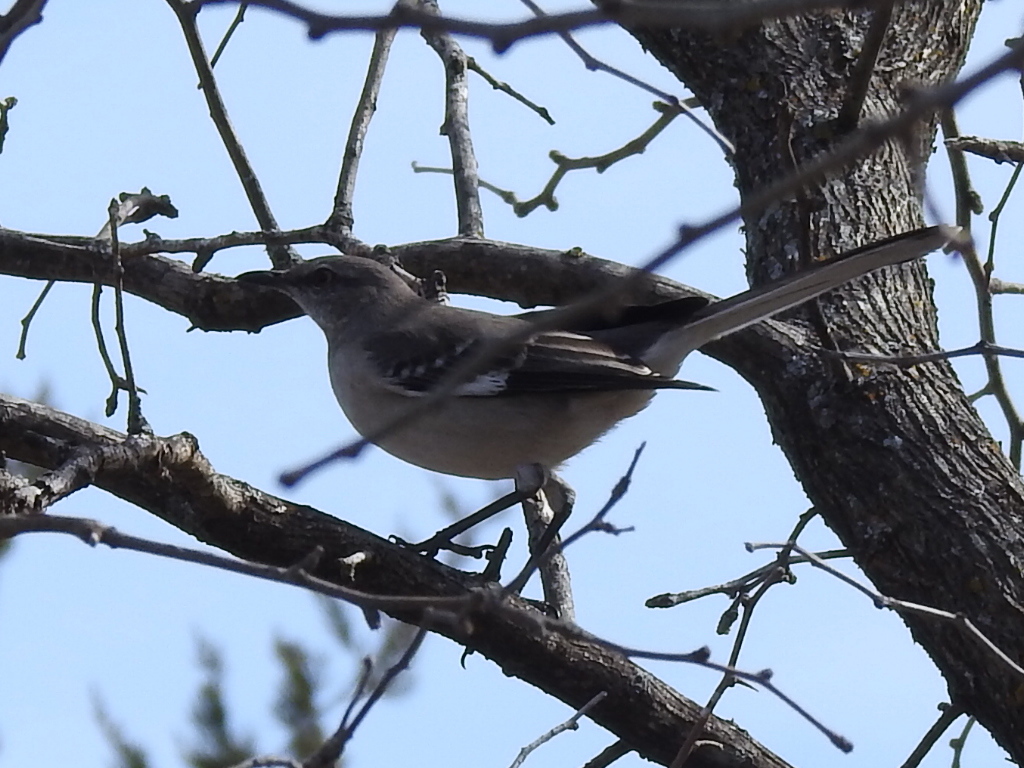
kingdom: Animalia
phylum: Chordata
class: Aves
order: Passeriformes
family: Mimidae
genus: Mimus
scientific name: Mimus polyglottos
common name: Northern mockingbird
